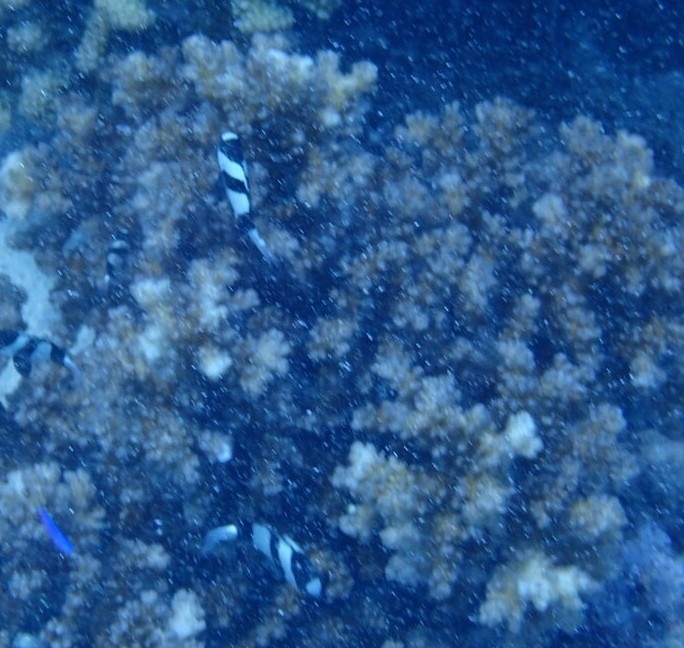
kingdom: Animalia
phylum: Chordata
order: Perciformes
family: Pomacentridae
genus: Dascyllus
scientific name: Dascyllus aruanus
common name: Humbug dascyllus
